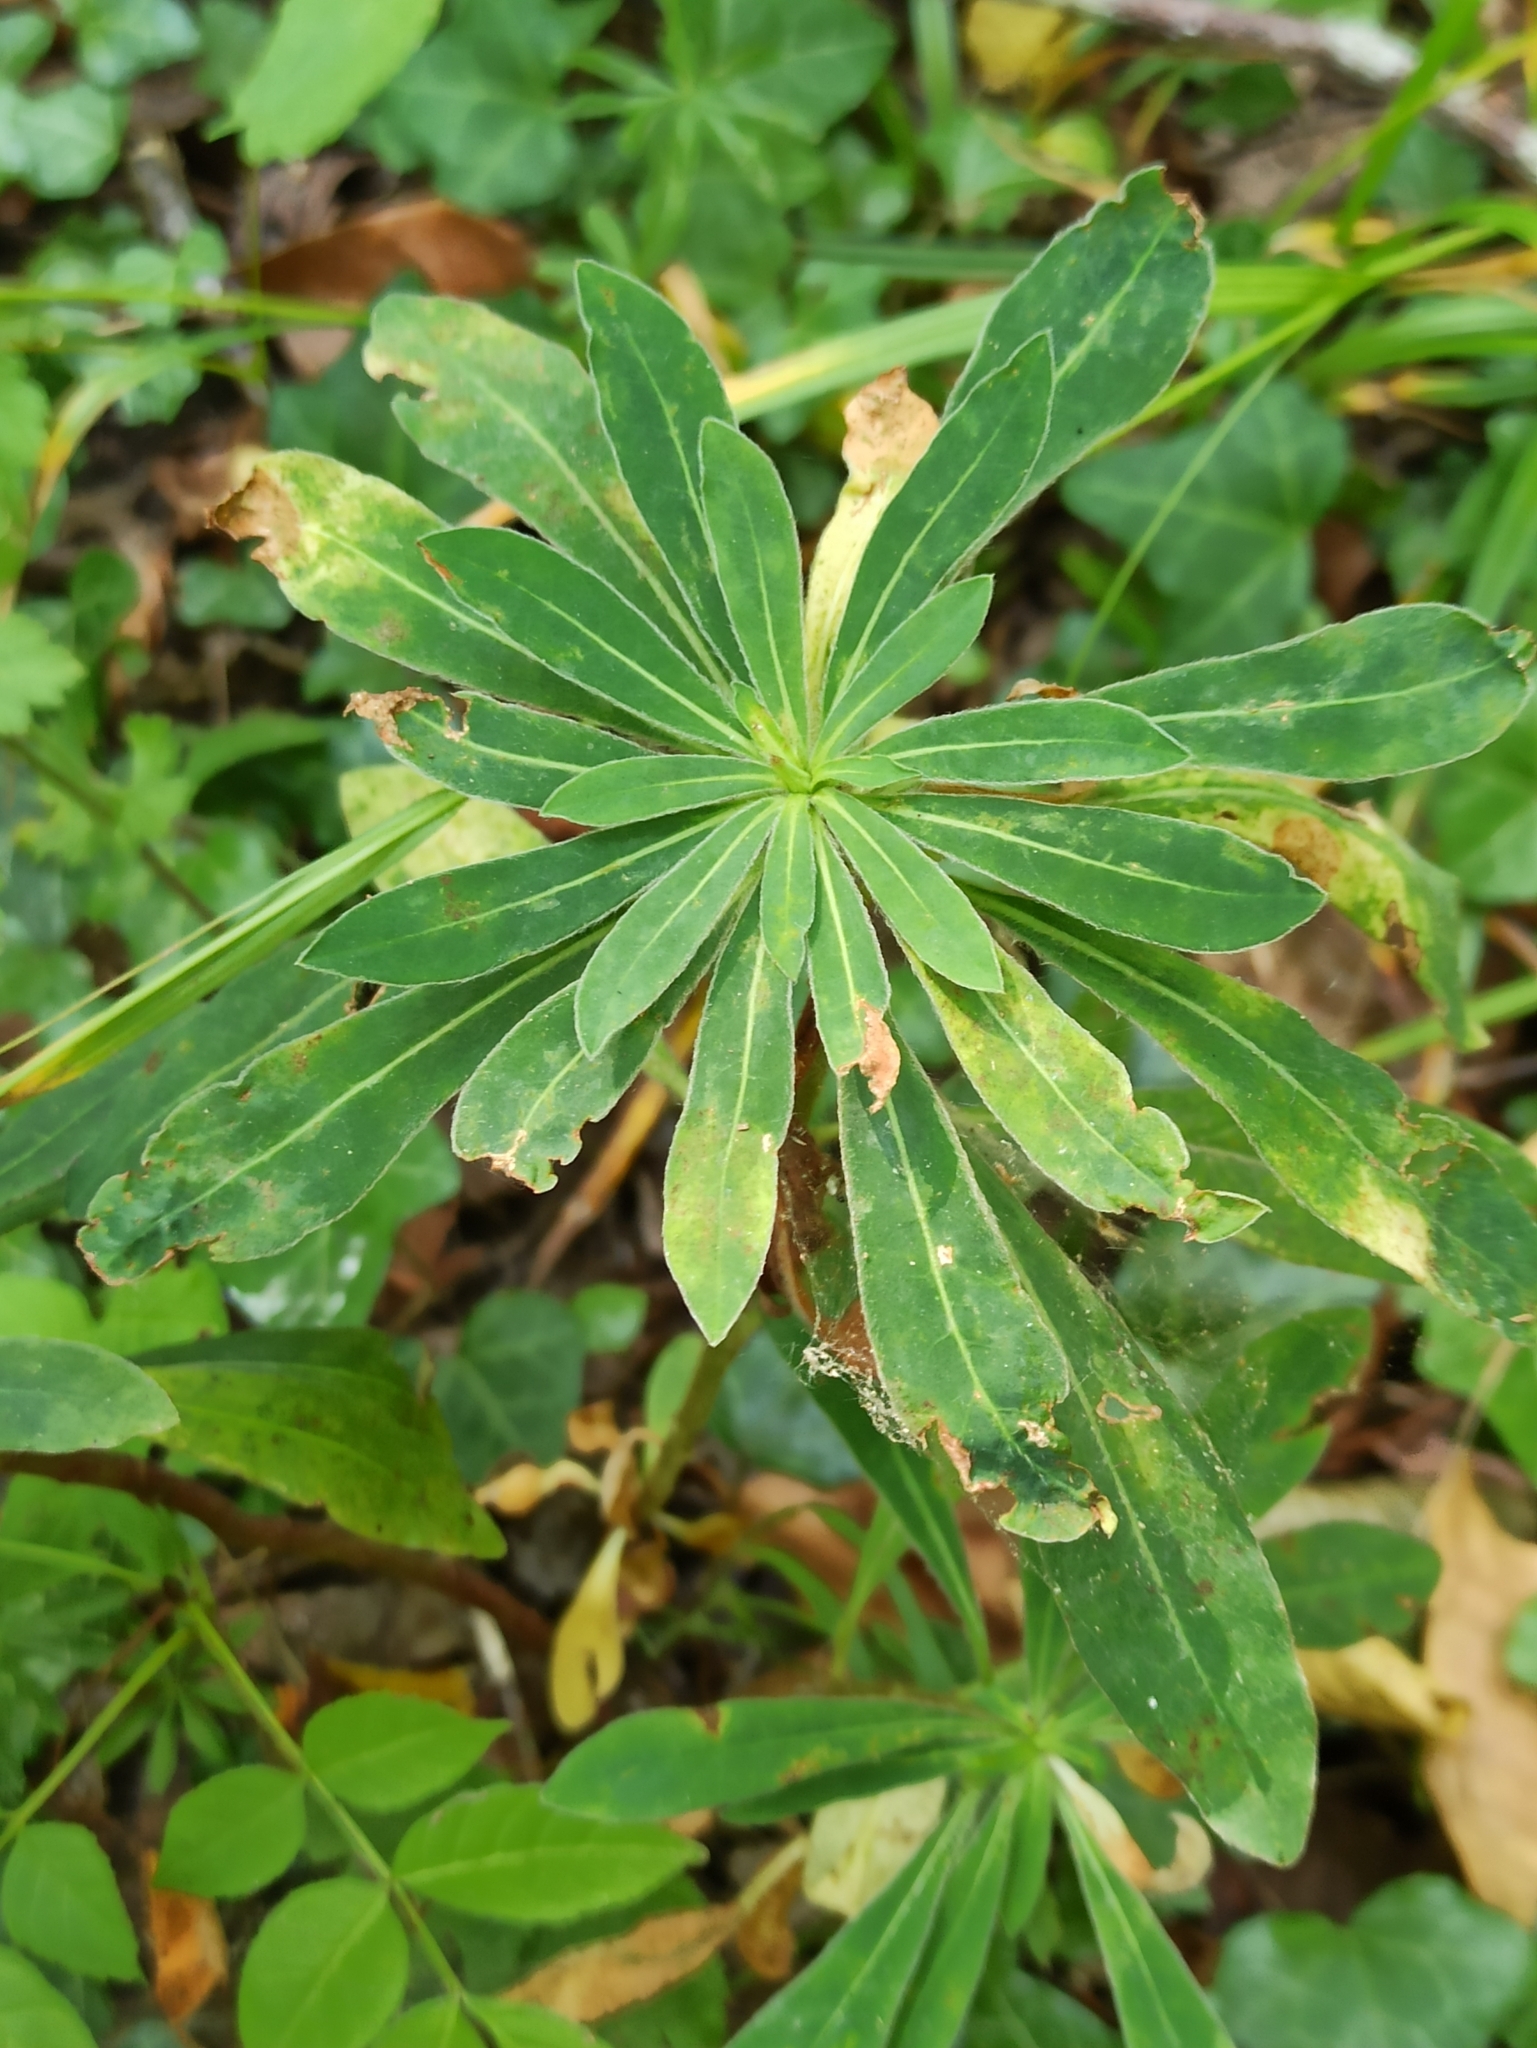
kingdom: Plantae
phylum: Tracheophyta
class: Magnoliopsida
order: Malpighiales
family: Euphorbiaceae
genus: Euphorbia
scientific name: Euphorbia amygdaloides
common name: Wood spurge
